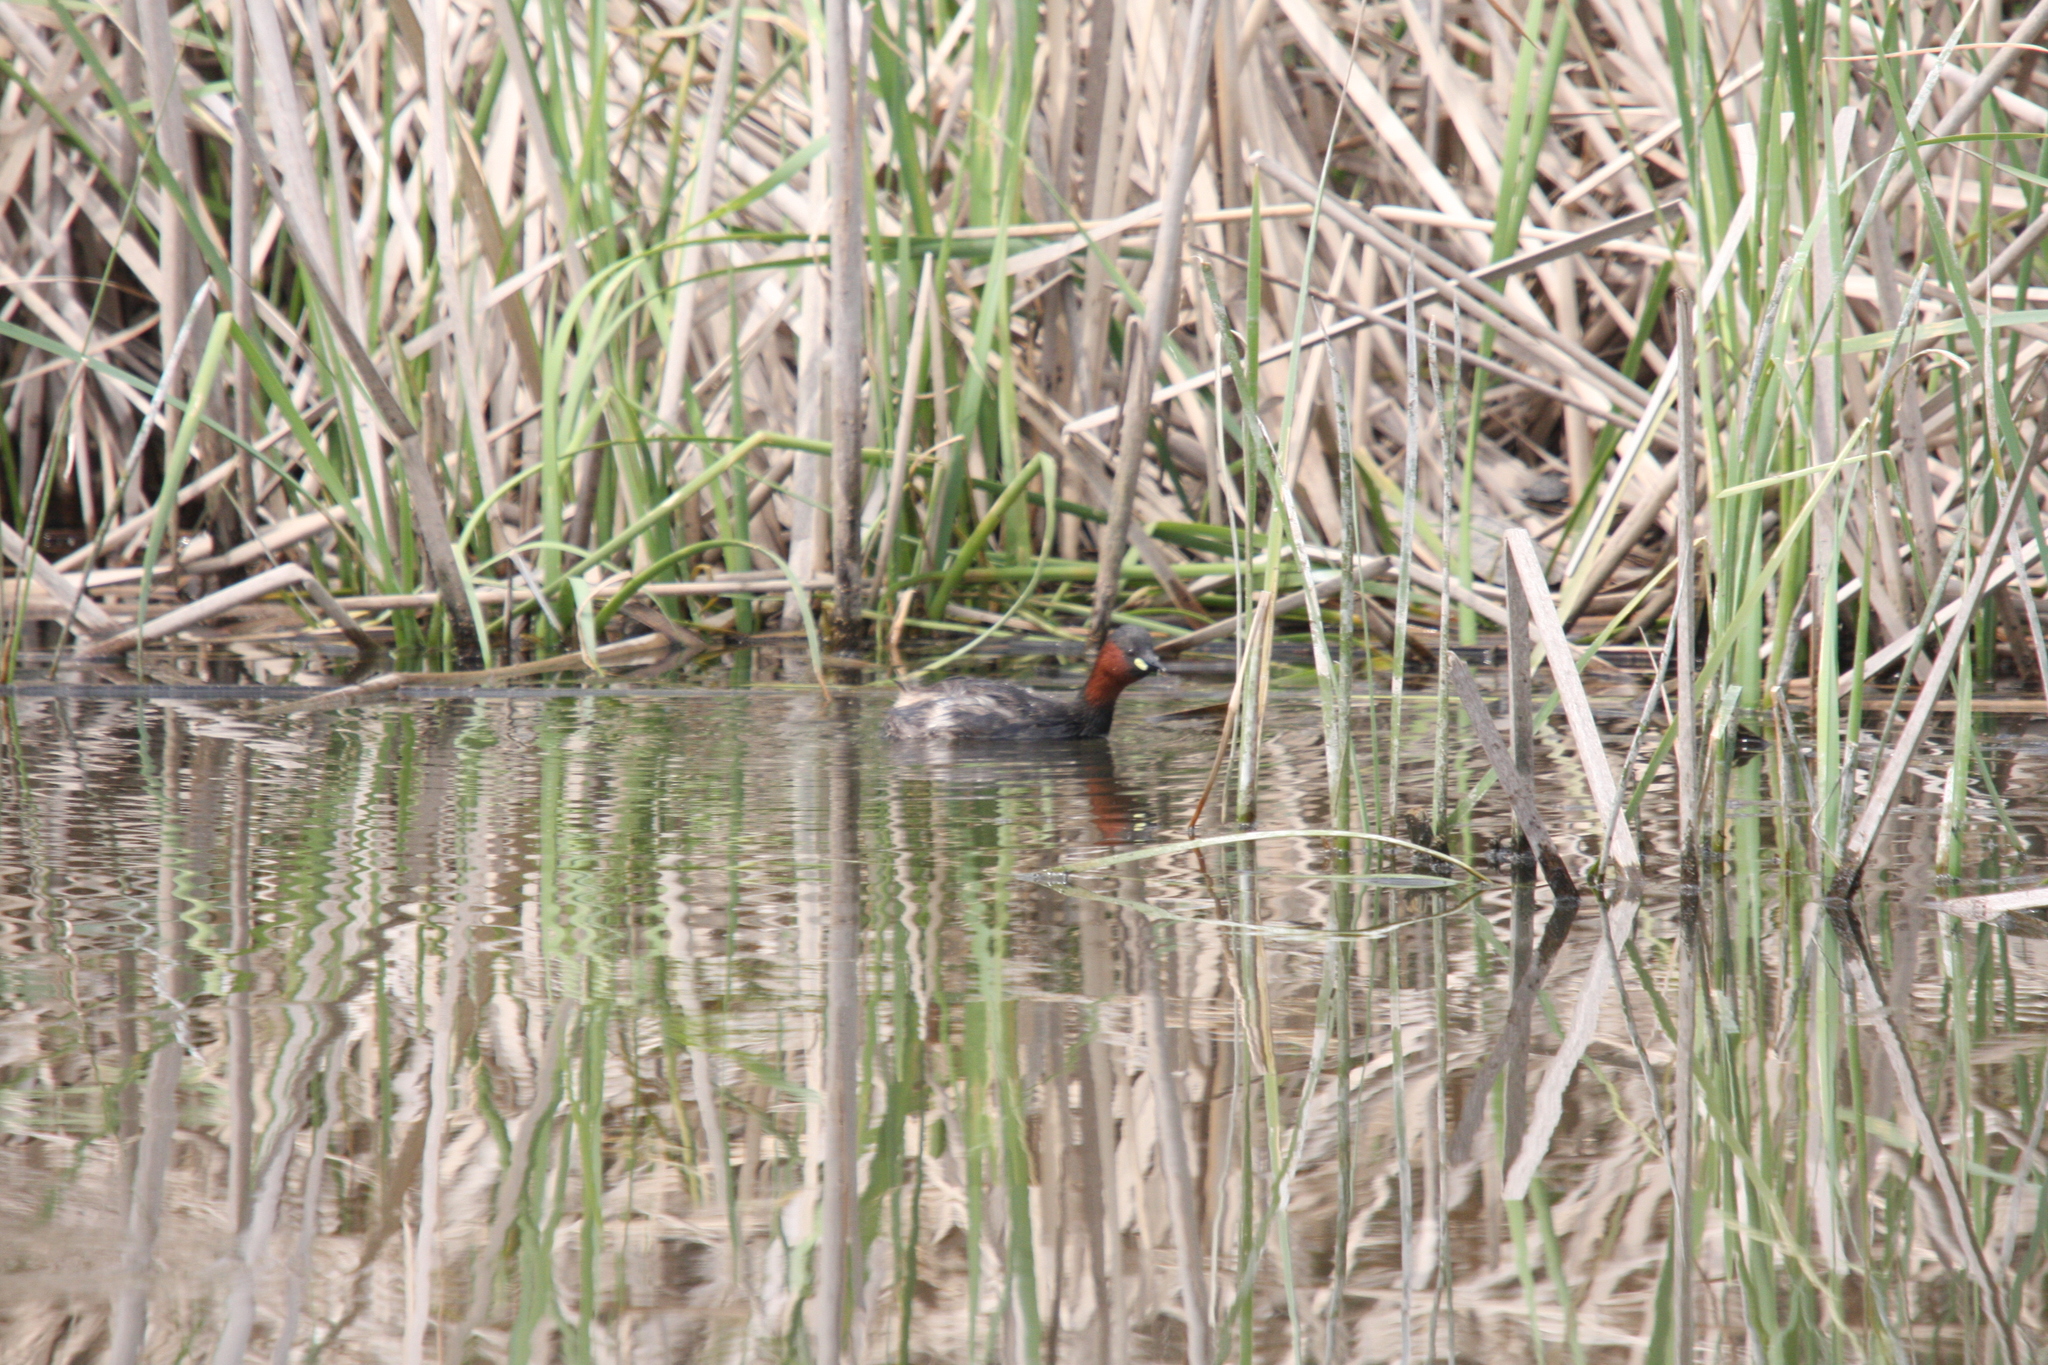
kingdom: Animalia
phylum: Chordata
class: Aves
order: Podicipediformes
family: Podicipedidae
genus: Tachybaptus
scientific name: Tachybaptus ruficollis
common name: Little grebe
